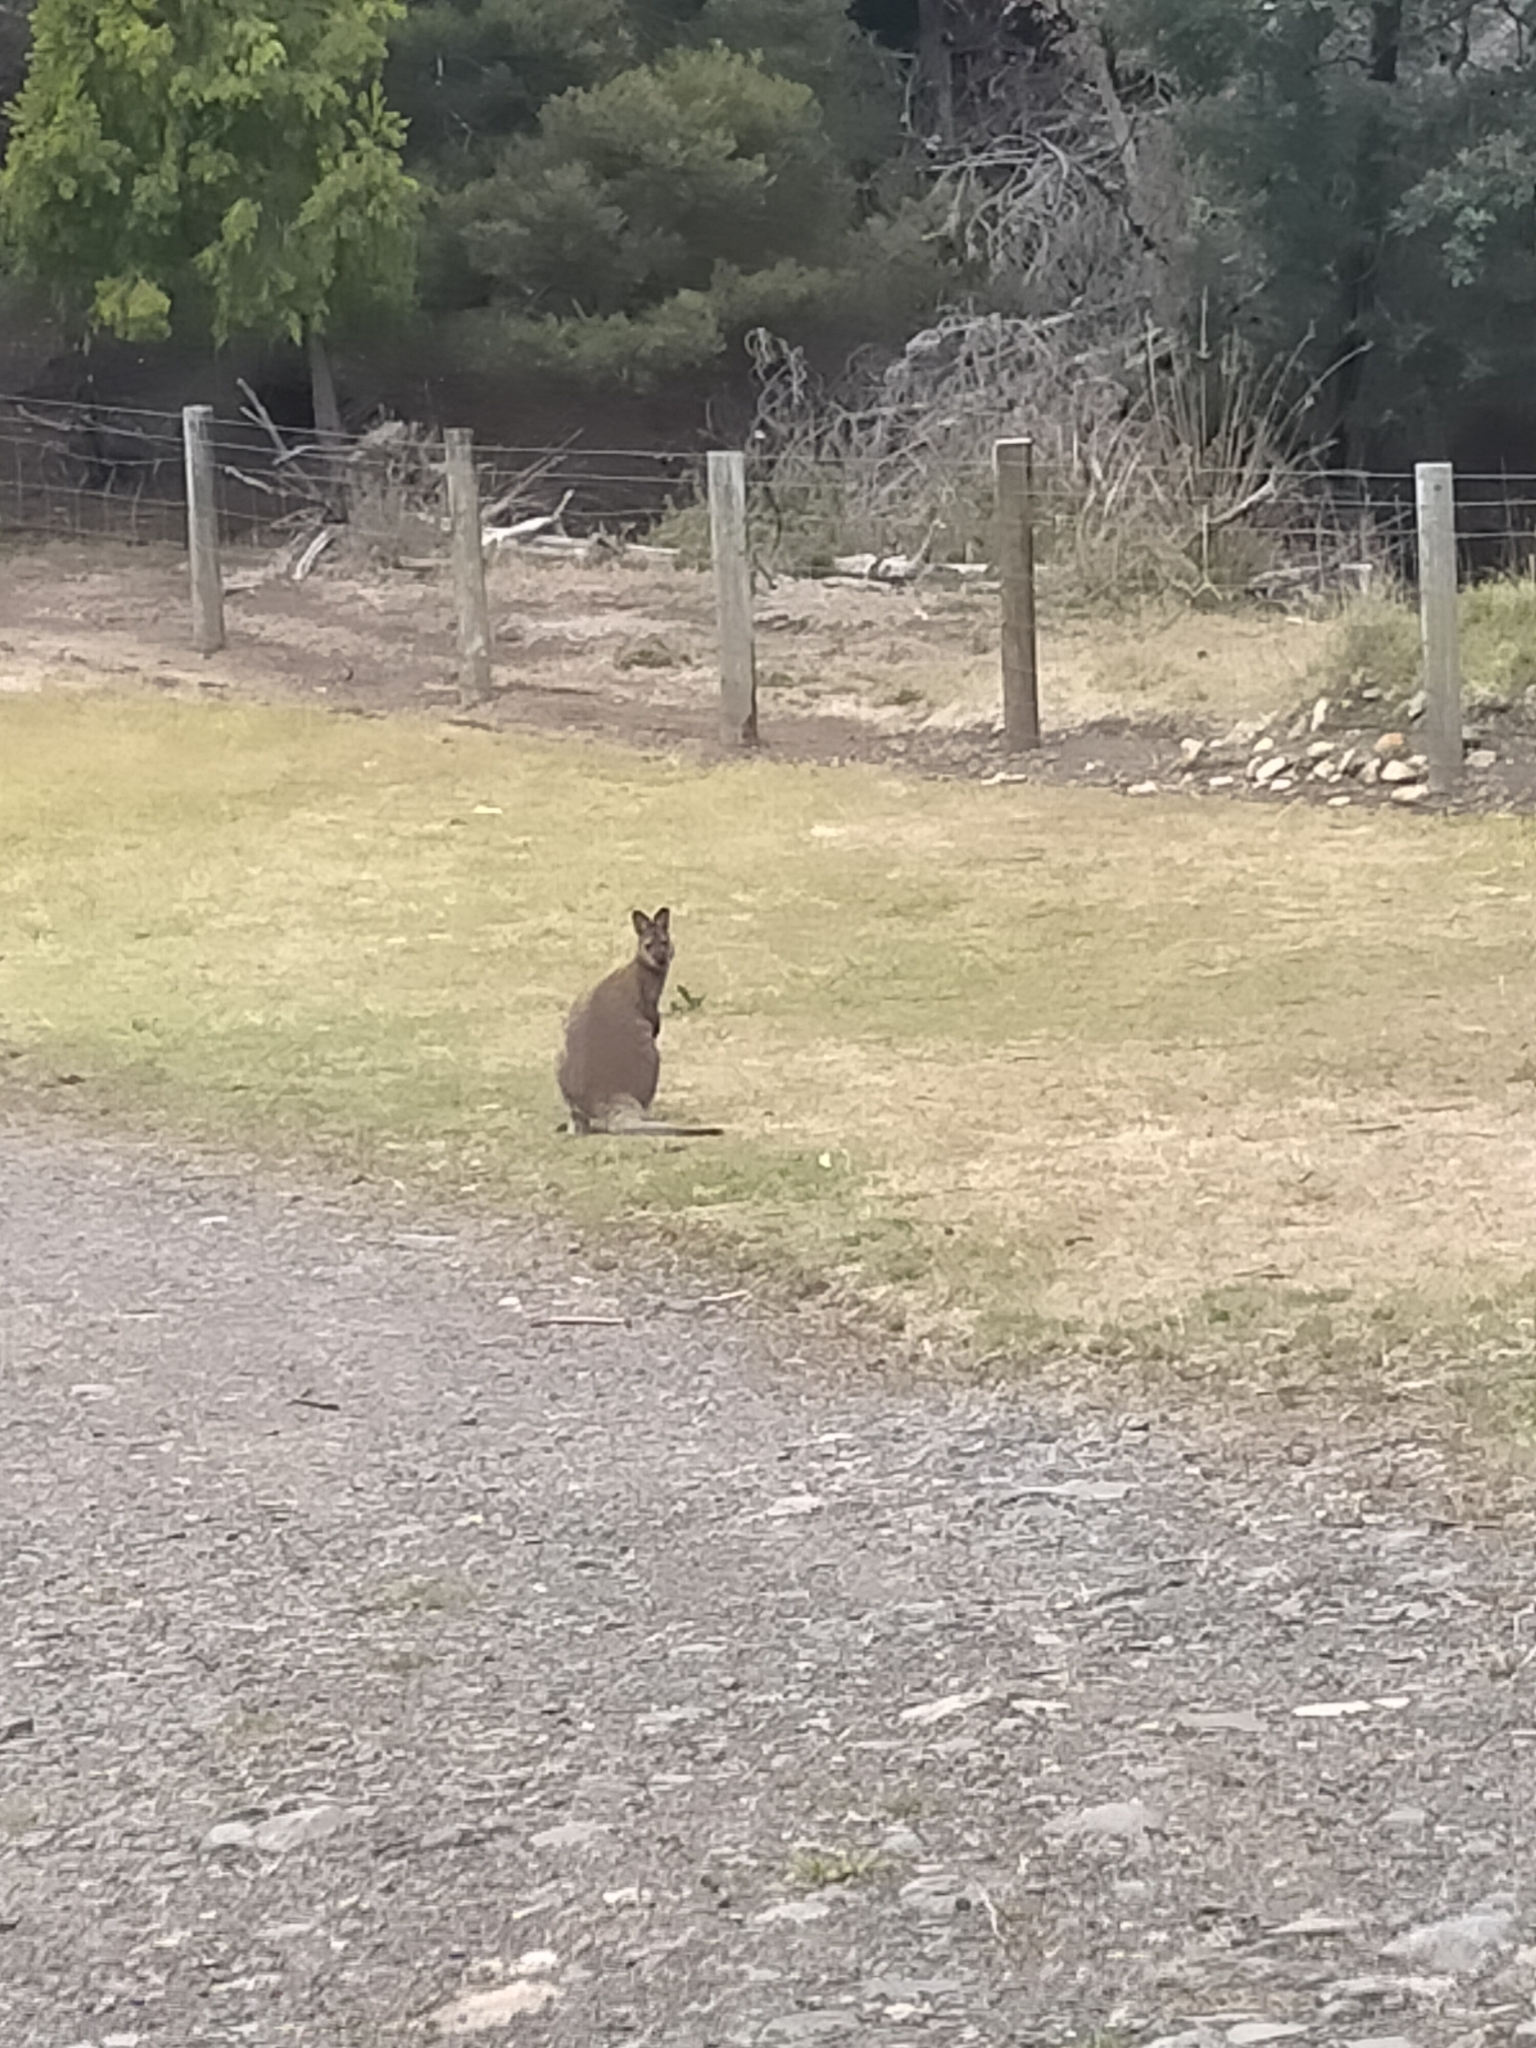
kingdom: Animalia
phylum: Chordata
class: Mammalia
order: Diprotodontia
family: Macropodidae
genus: Notamacropus
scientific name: Notamacropus rufogriseus
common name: Red-necked wallaby
